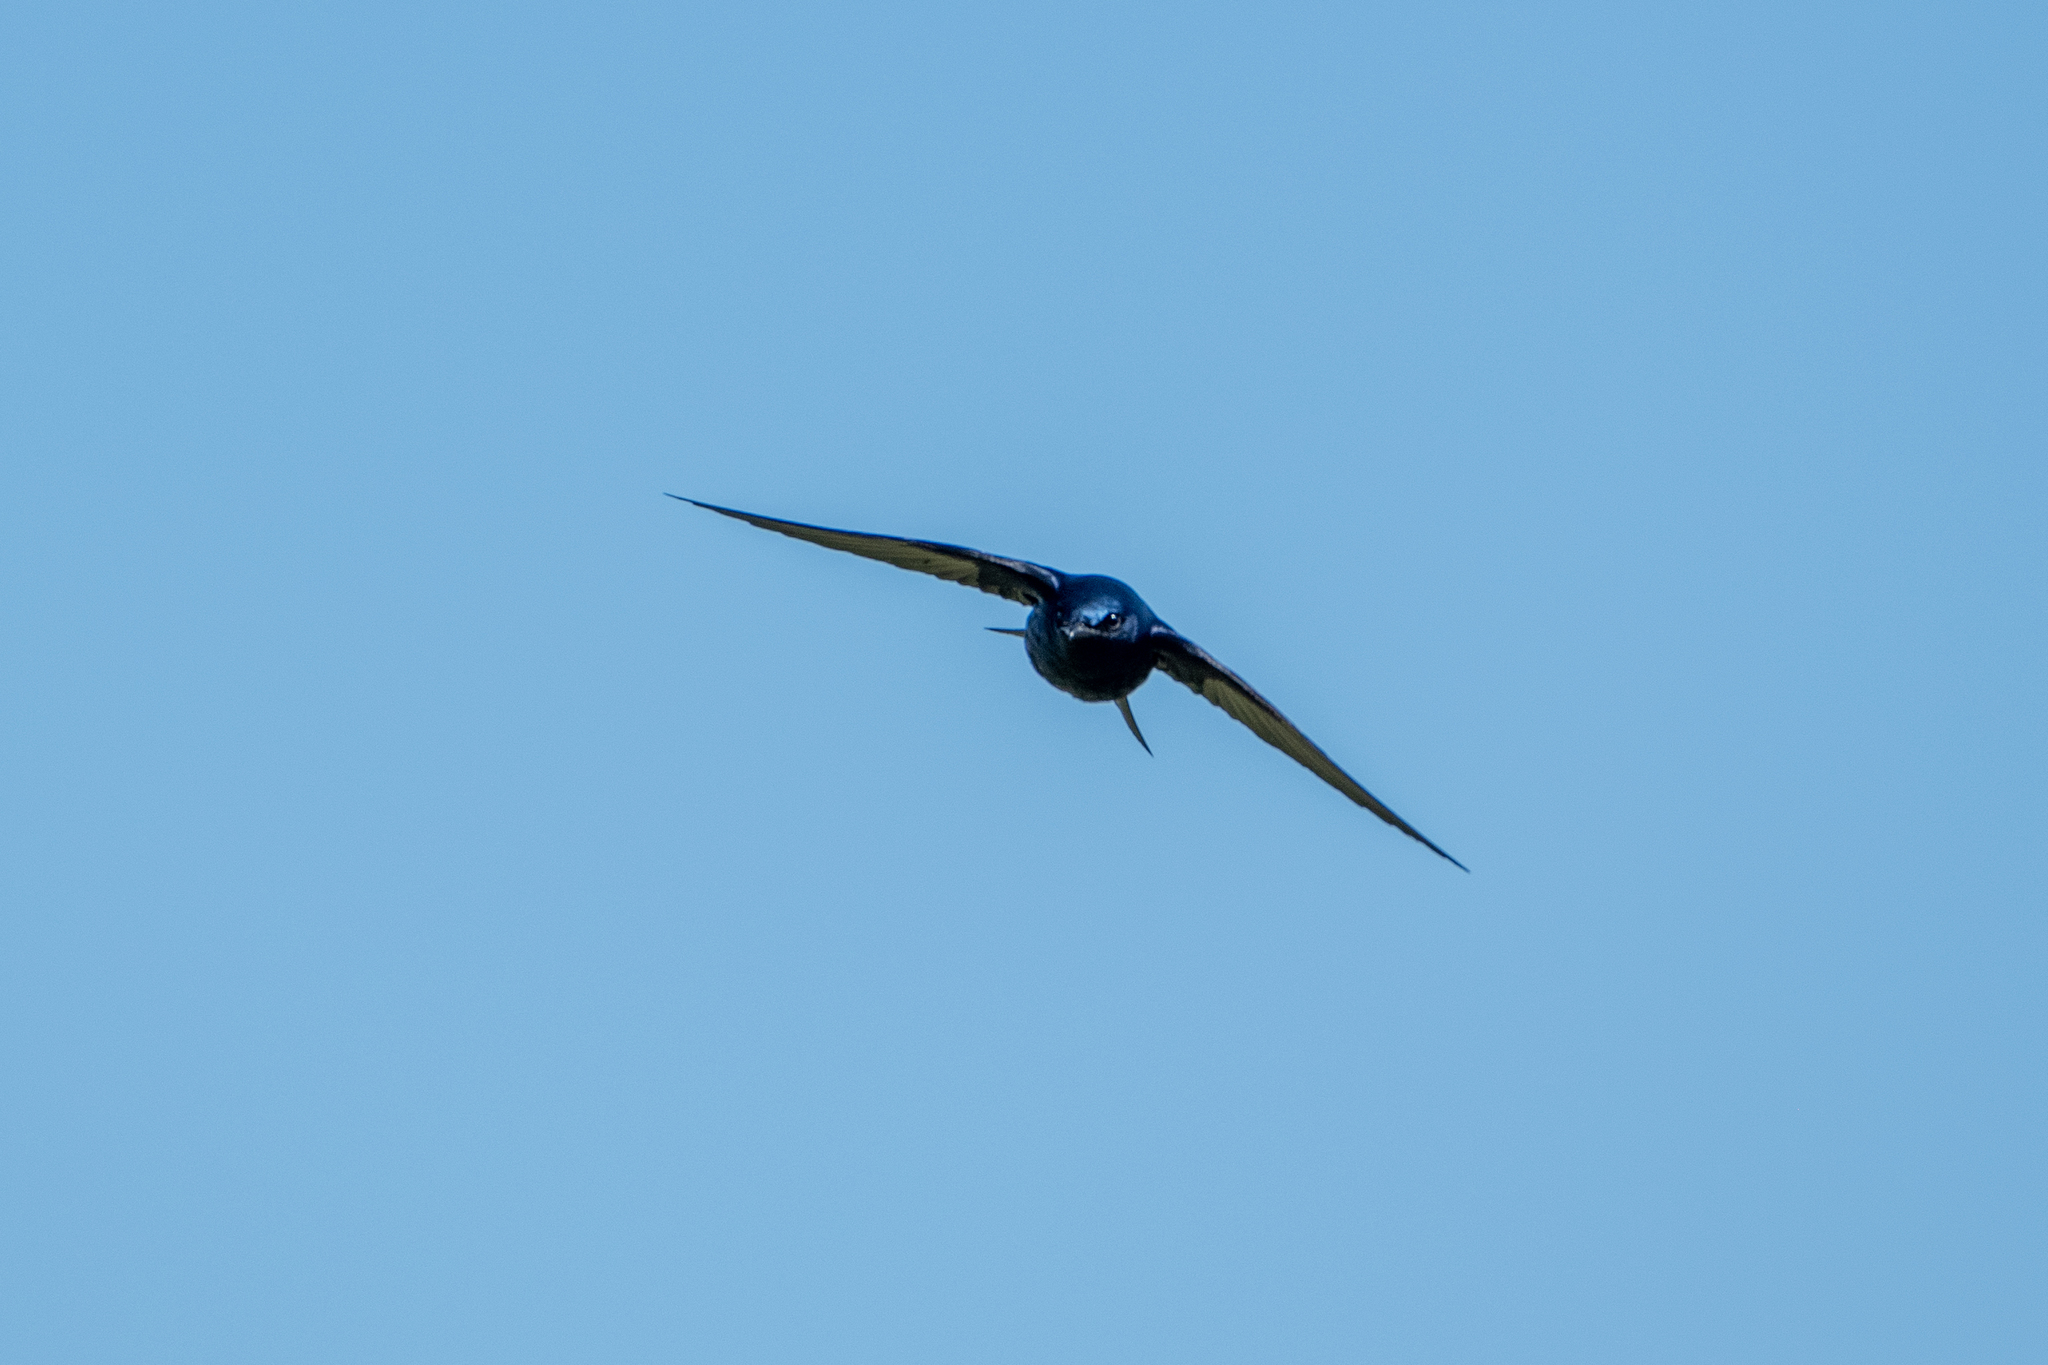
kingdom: Animalia
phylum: Chordata
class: Aves
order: Passeriformes
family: Hirundinidae
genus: Progne
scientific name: Progne subis
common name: Purple martin
